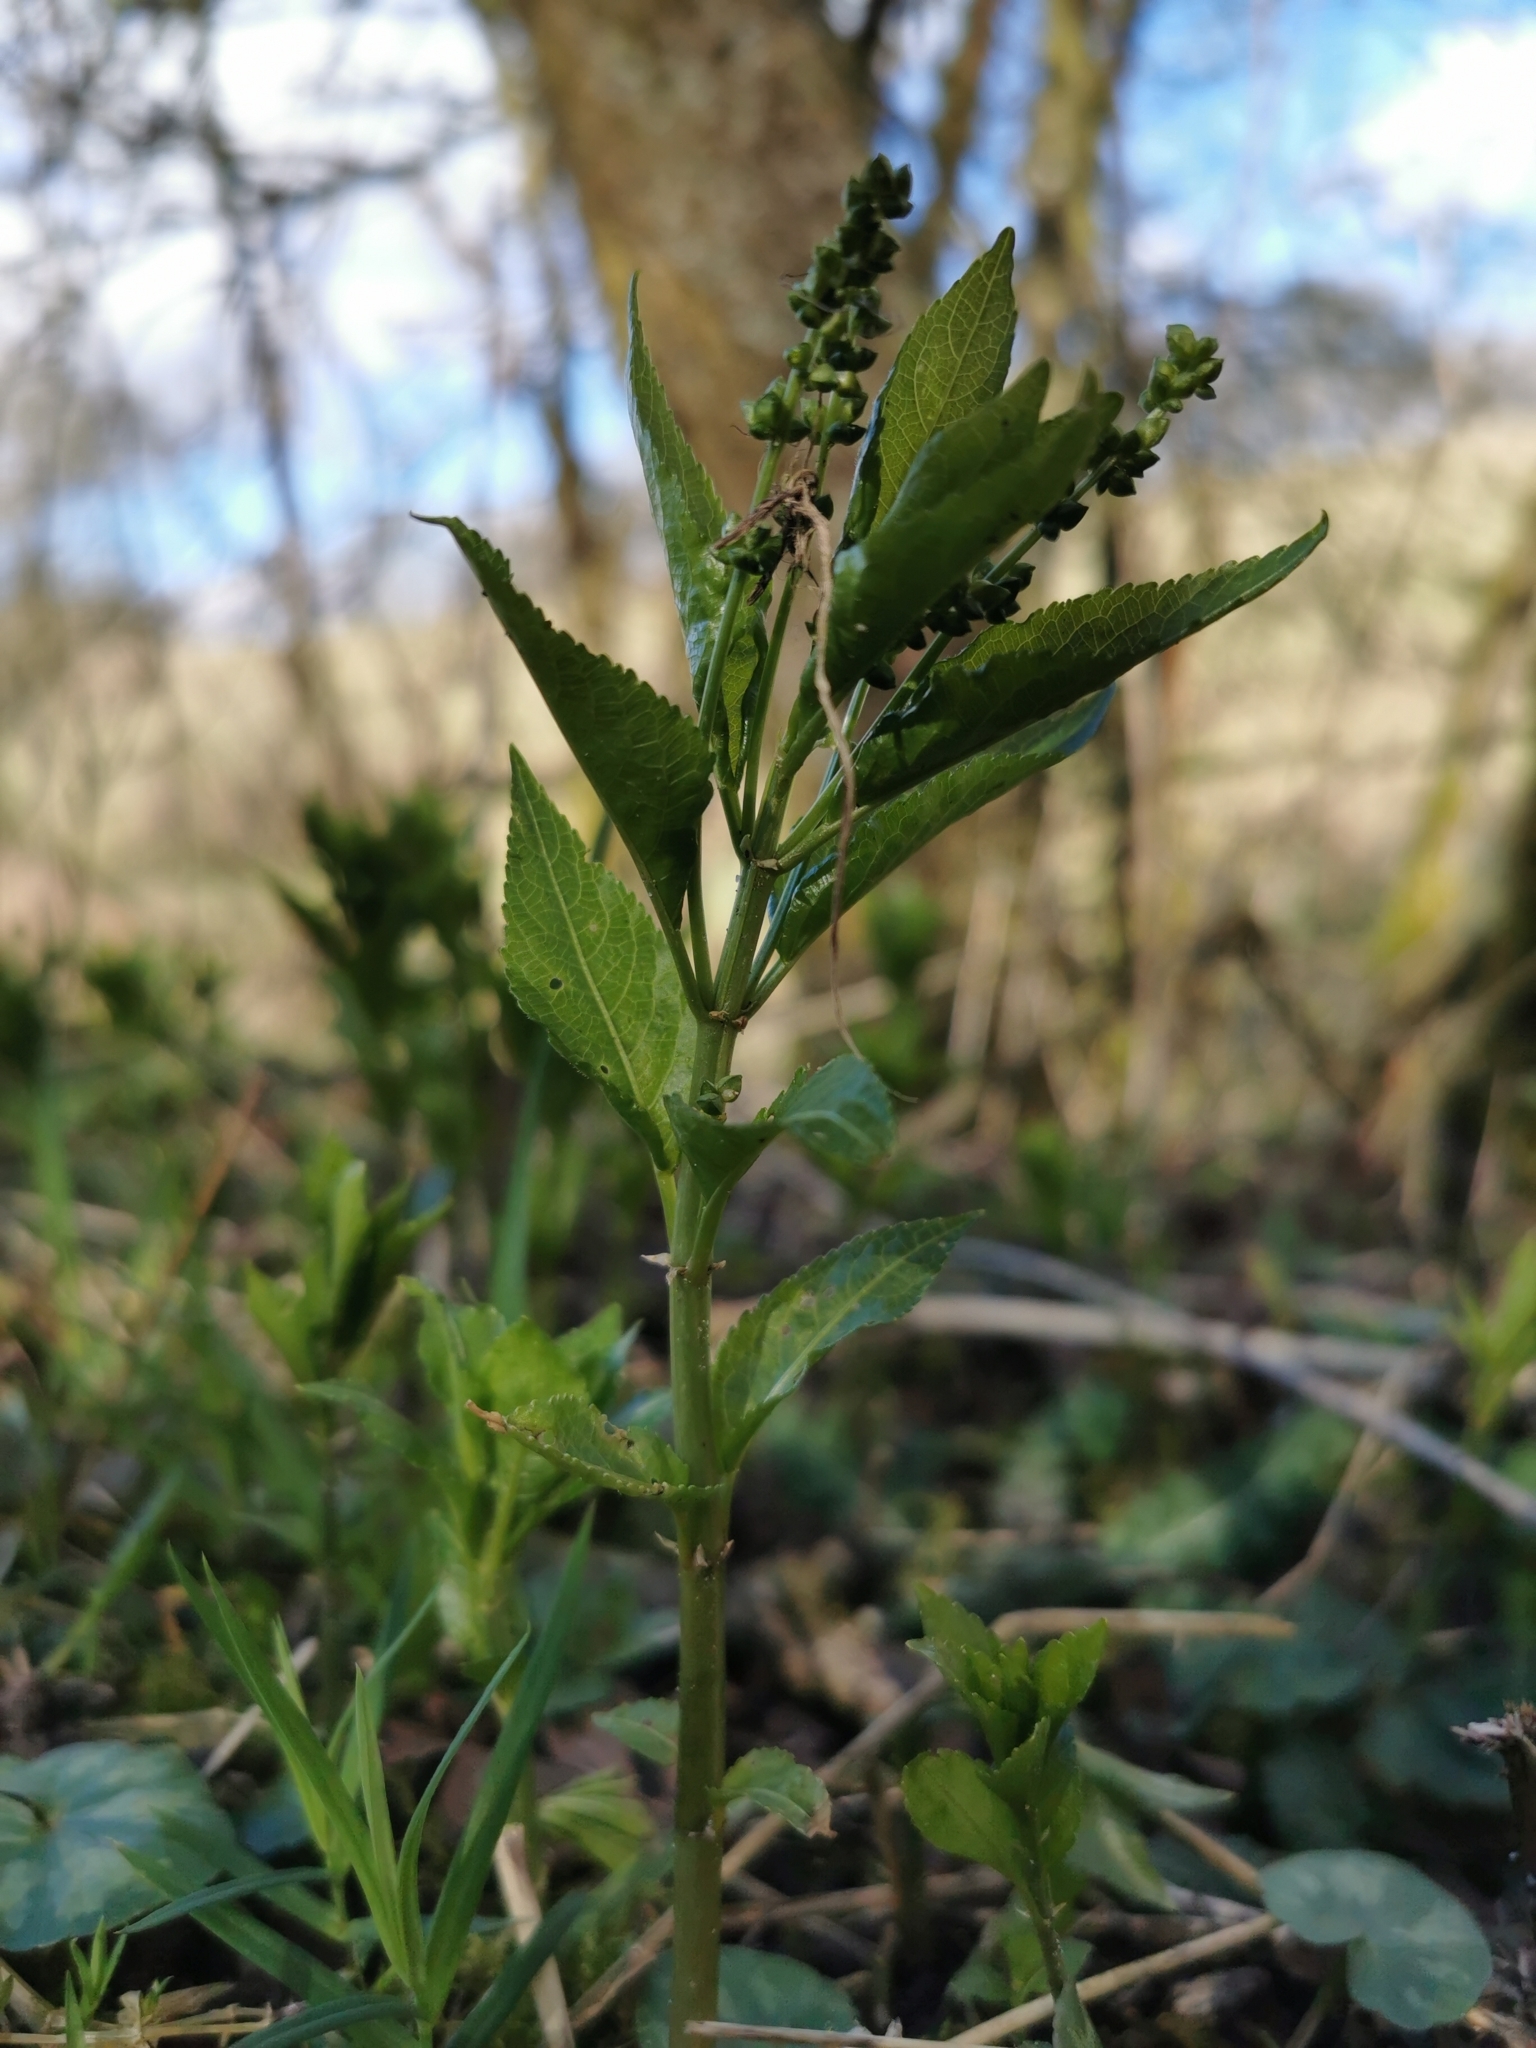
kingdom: Plantae
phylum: Tracheophyta
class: Magnoliopsida
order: Malpighiales
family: Euphorbiaceae
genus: Mercurialis
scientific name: Mercurialis perennis
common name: Dog mercury
